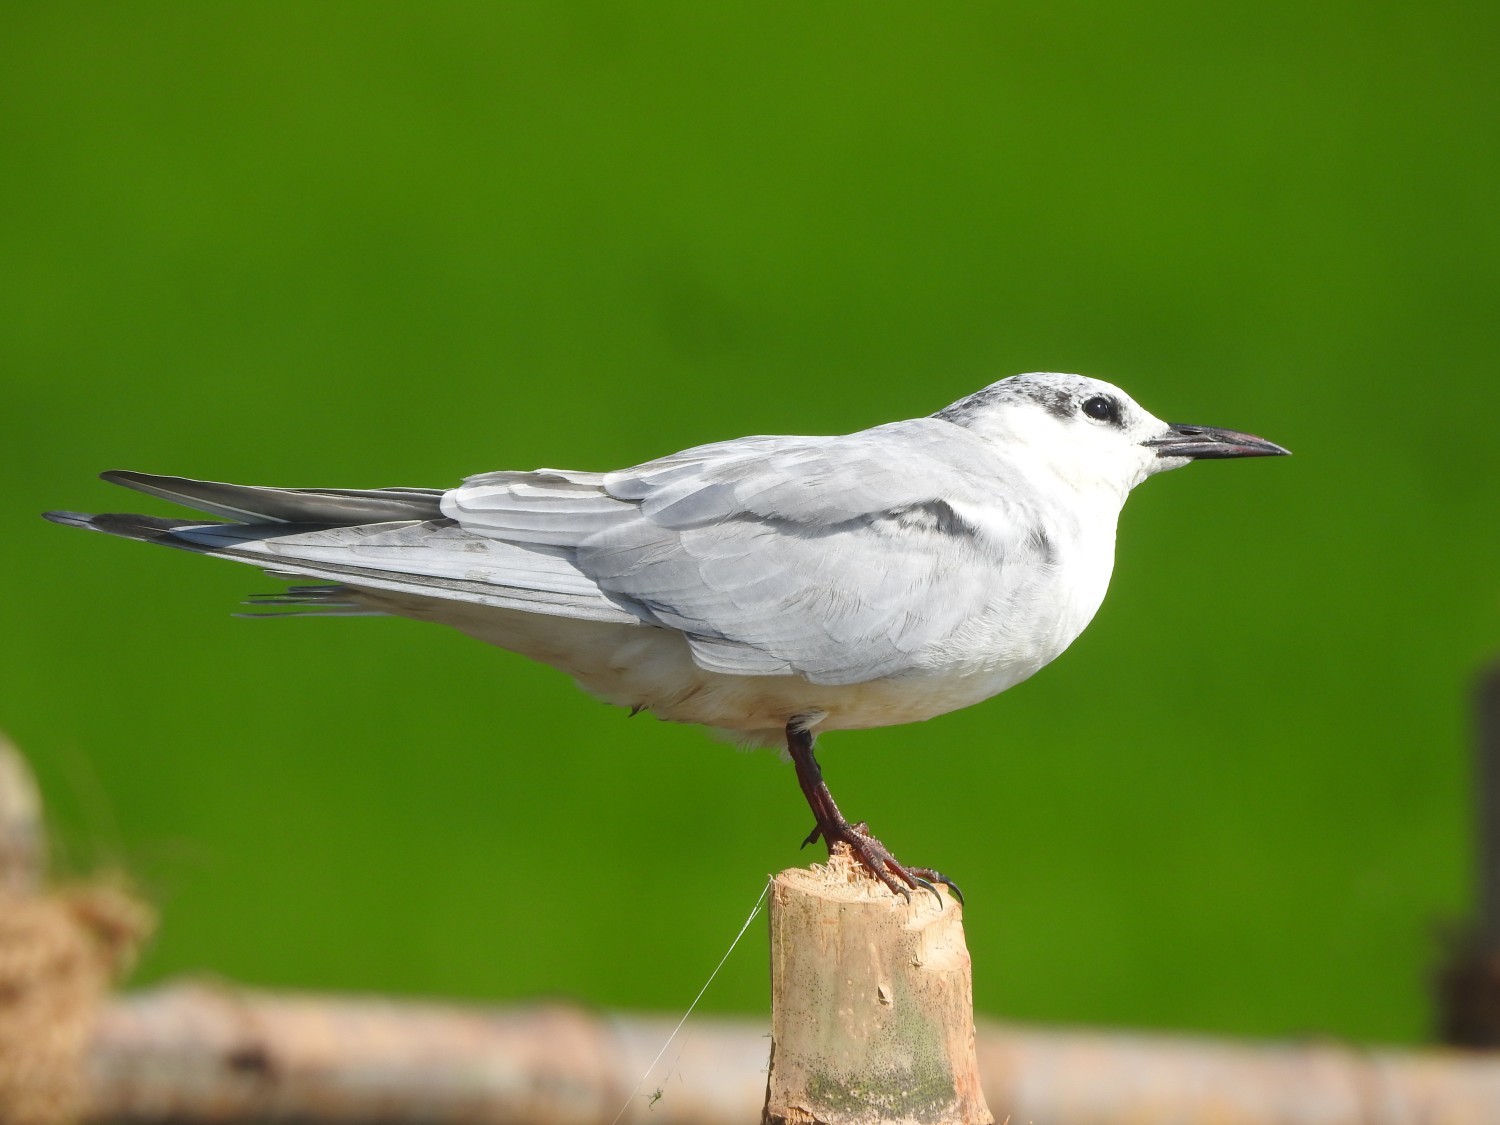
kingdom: Animalia
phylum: Chordata
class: Aves
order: Charadriiformes
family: Laridae
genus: Chlidonias
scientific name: Chlidonias hybrida
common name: Whiskered tern
